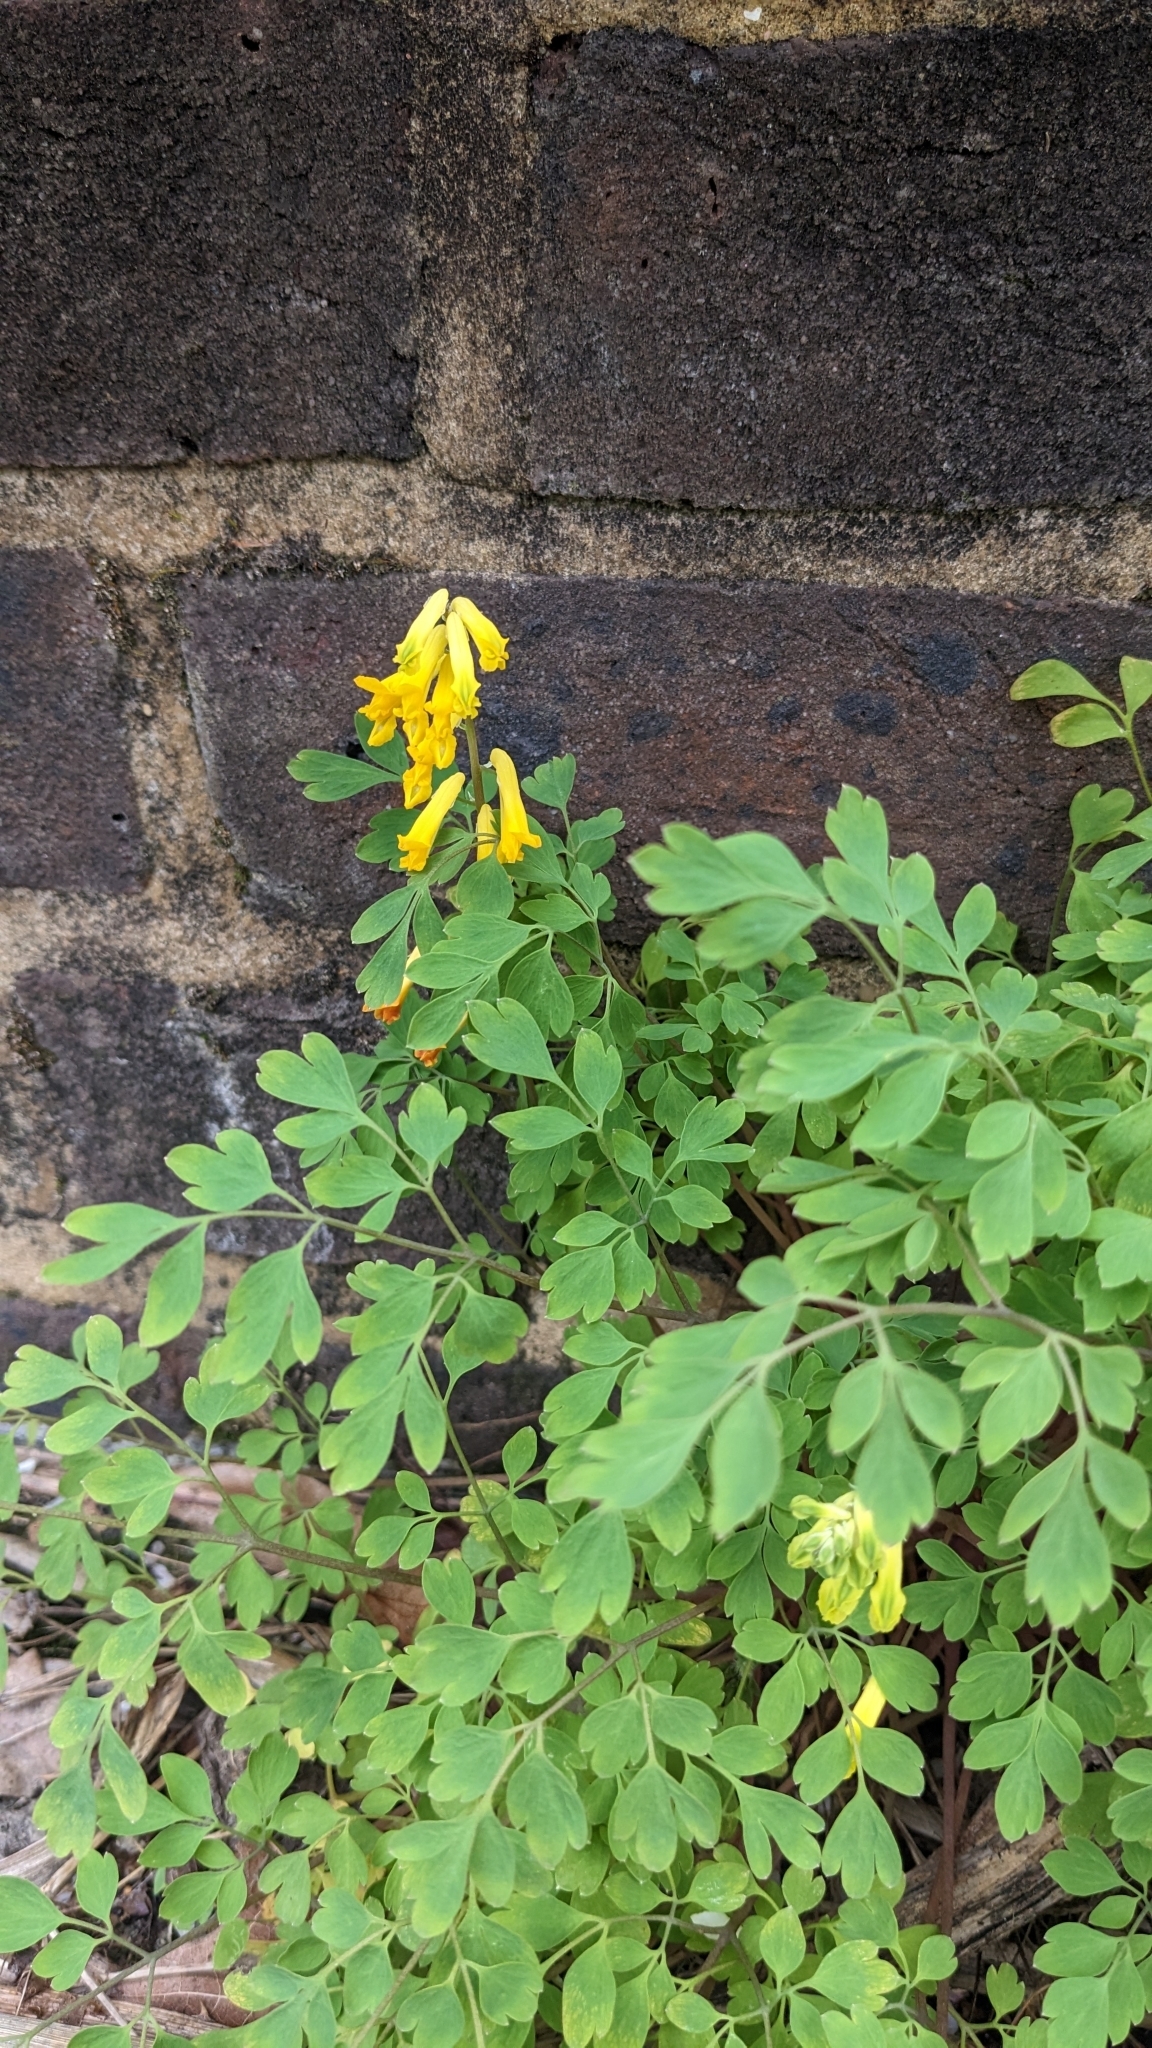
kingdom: Plantae
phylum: Tracheophyta
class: Magnoliopsida
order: Ranunculales
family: Papaveraceae
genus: Pseudofumaria
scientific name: Pseudofumaria lutea
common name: Yellow corydalis
